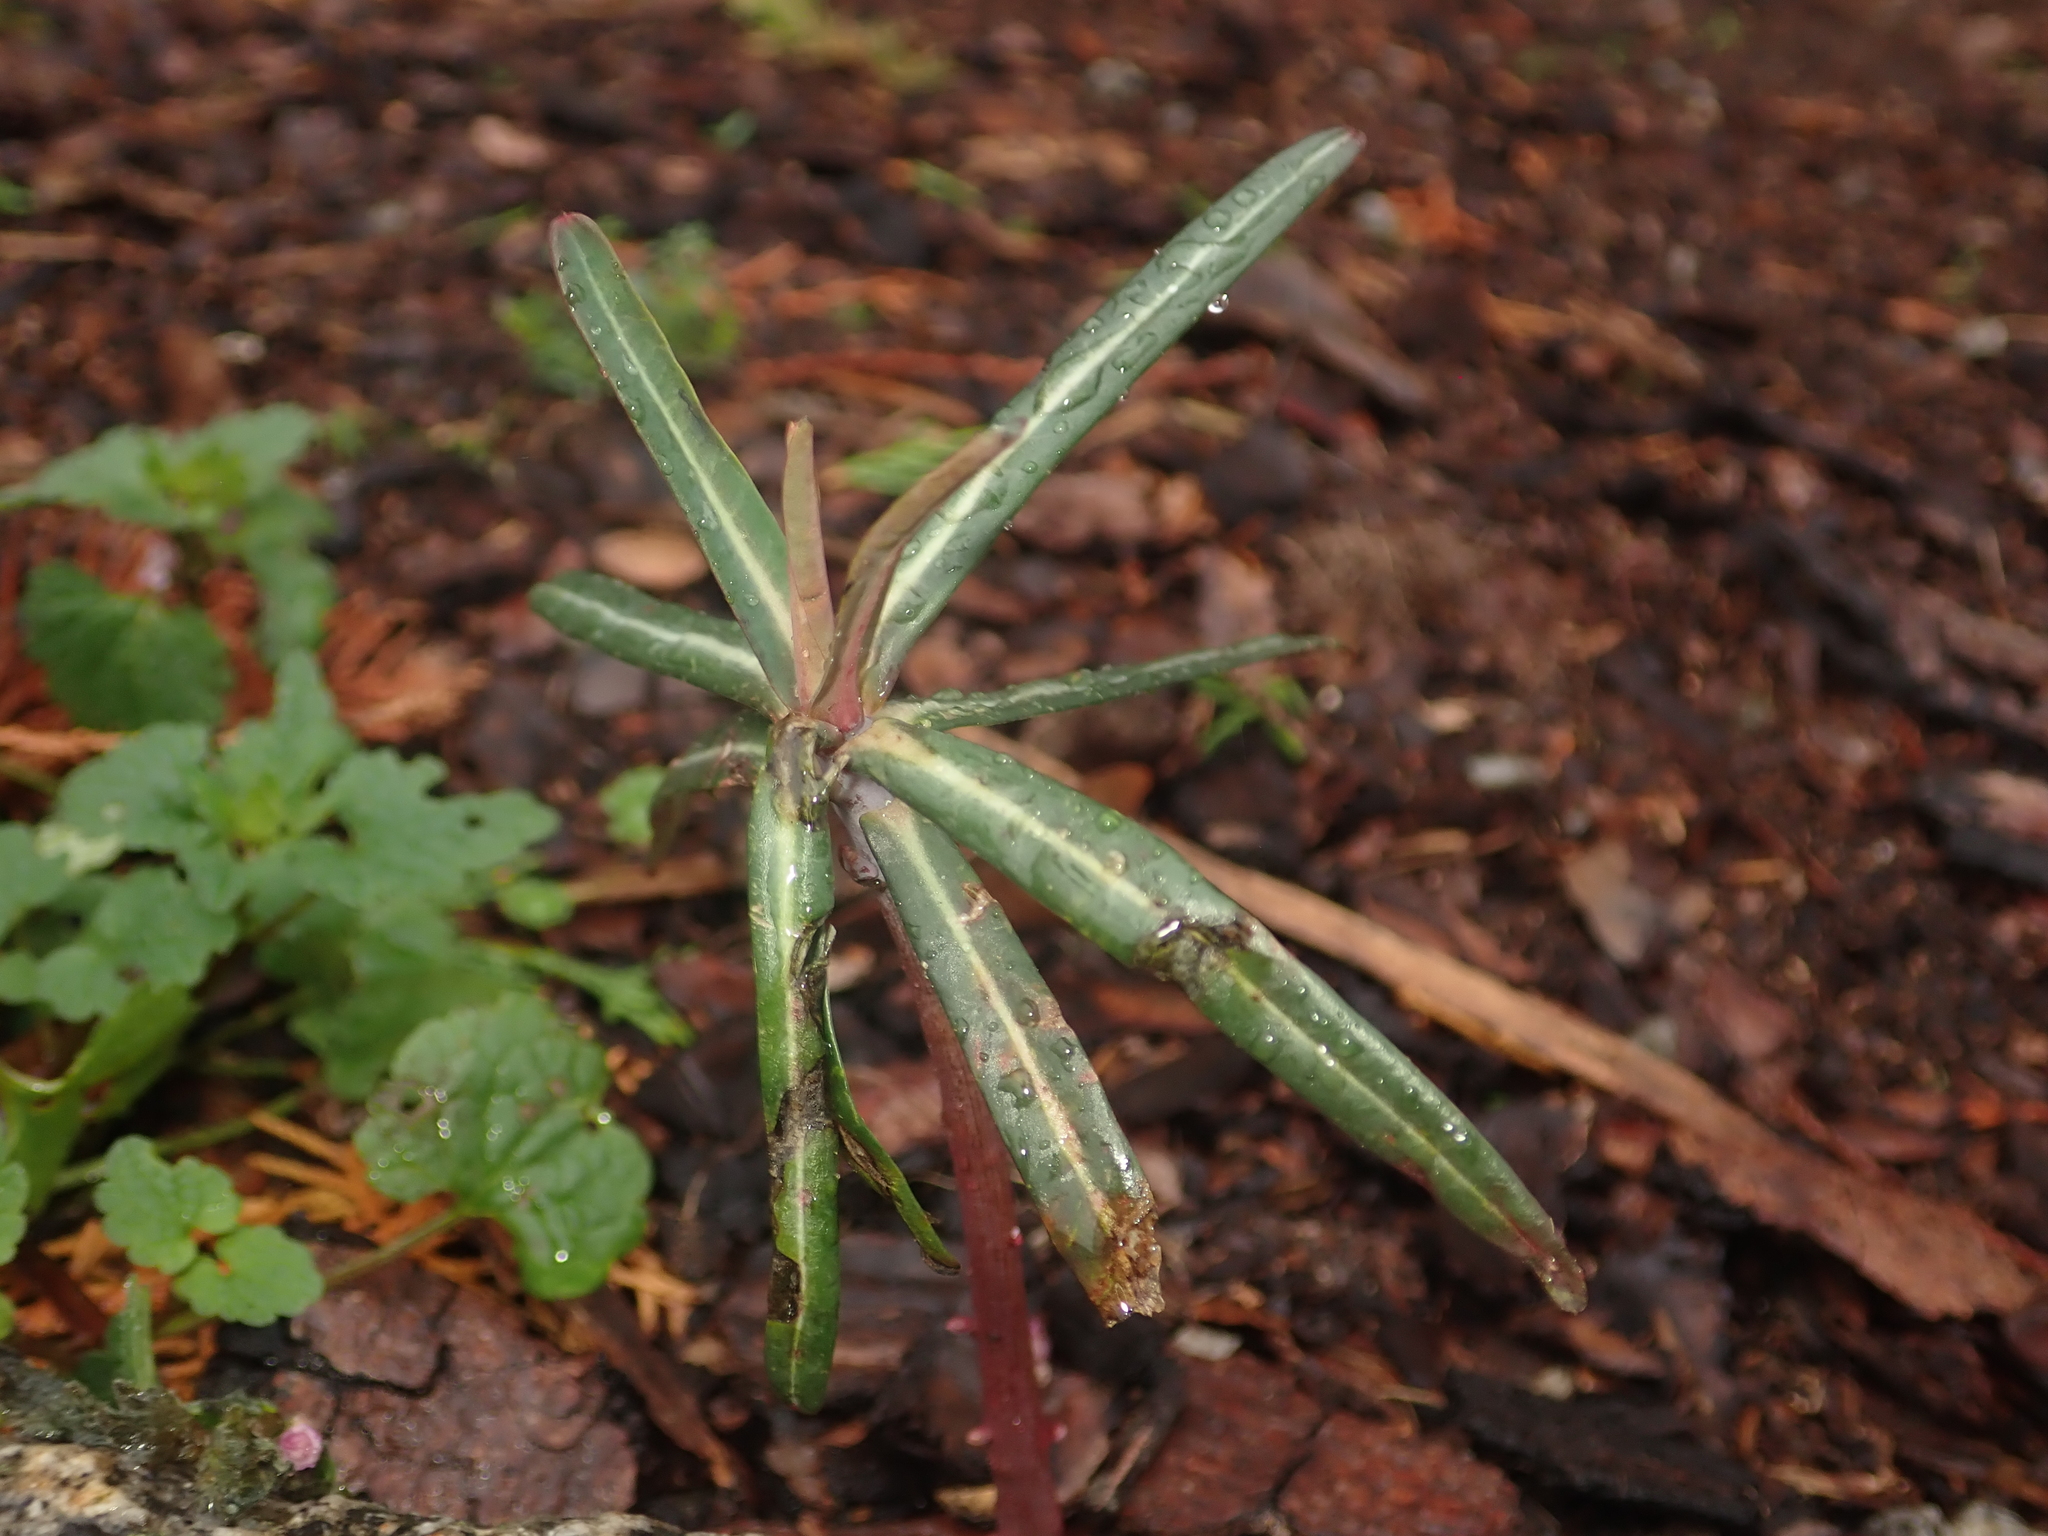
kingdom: Plantae
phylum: Tracheophyta
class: Magnoliopsida
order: Malpighiales
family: Euphorbiaceae
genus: Euphorbia
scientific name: Euphorbia lathyris
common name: Caper spurge
